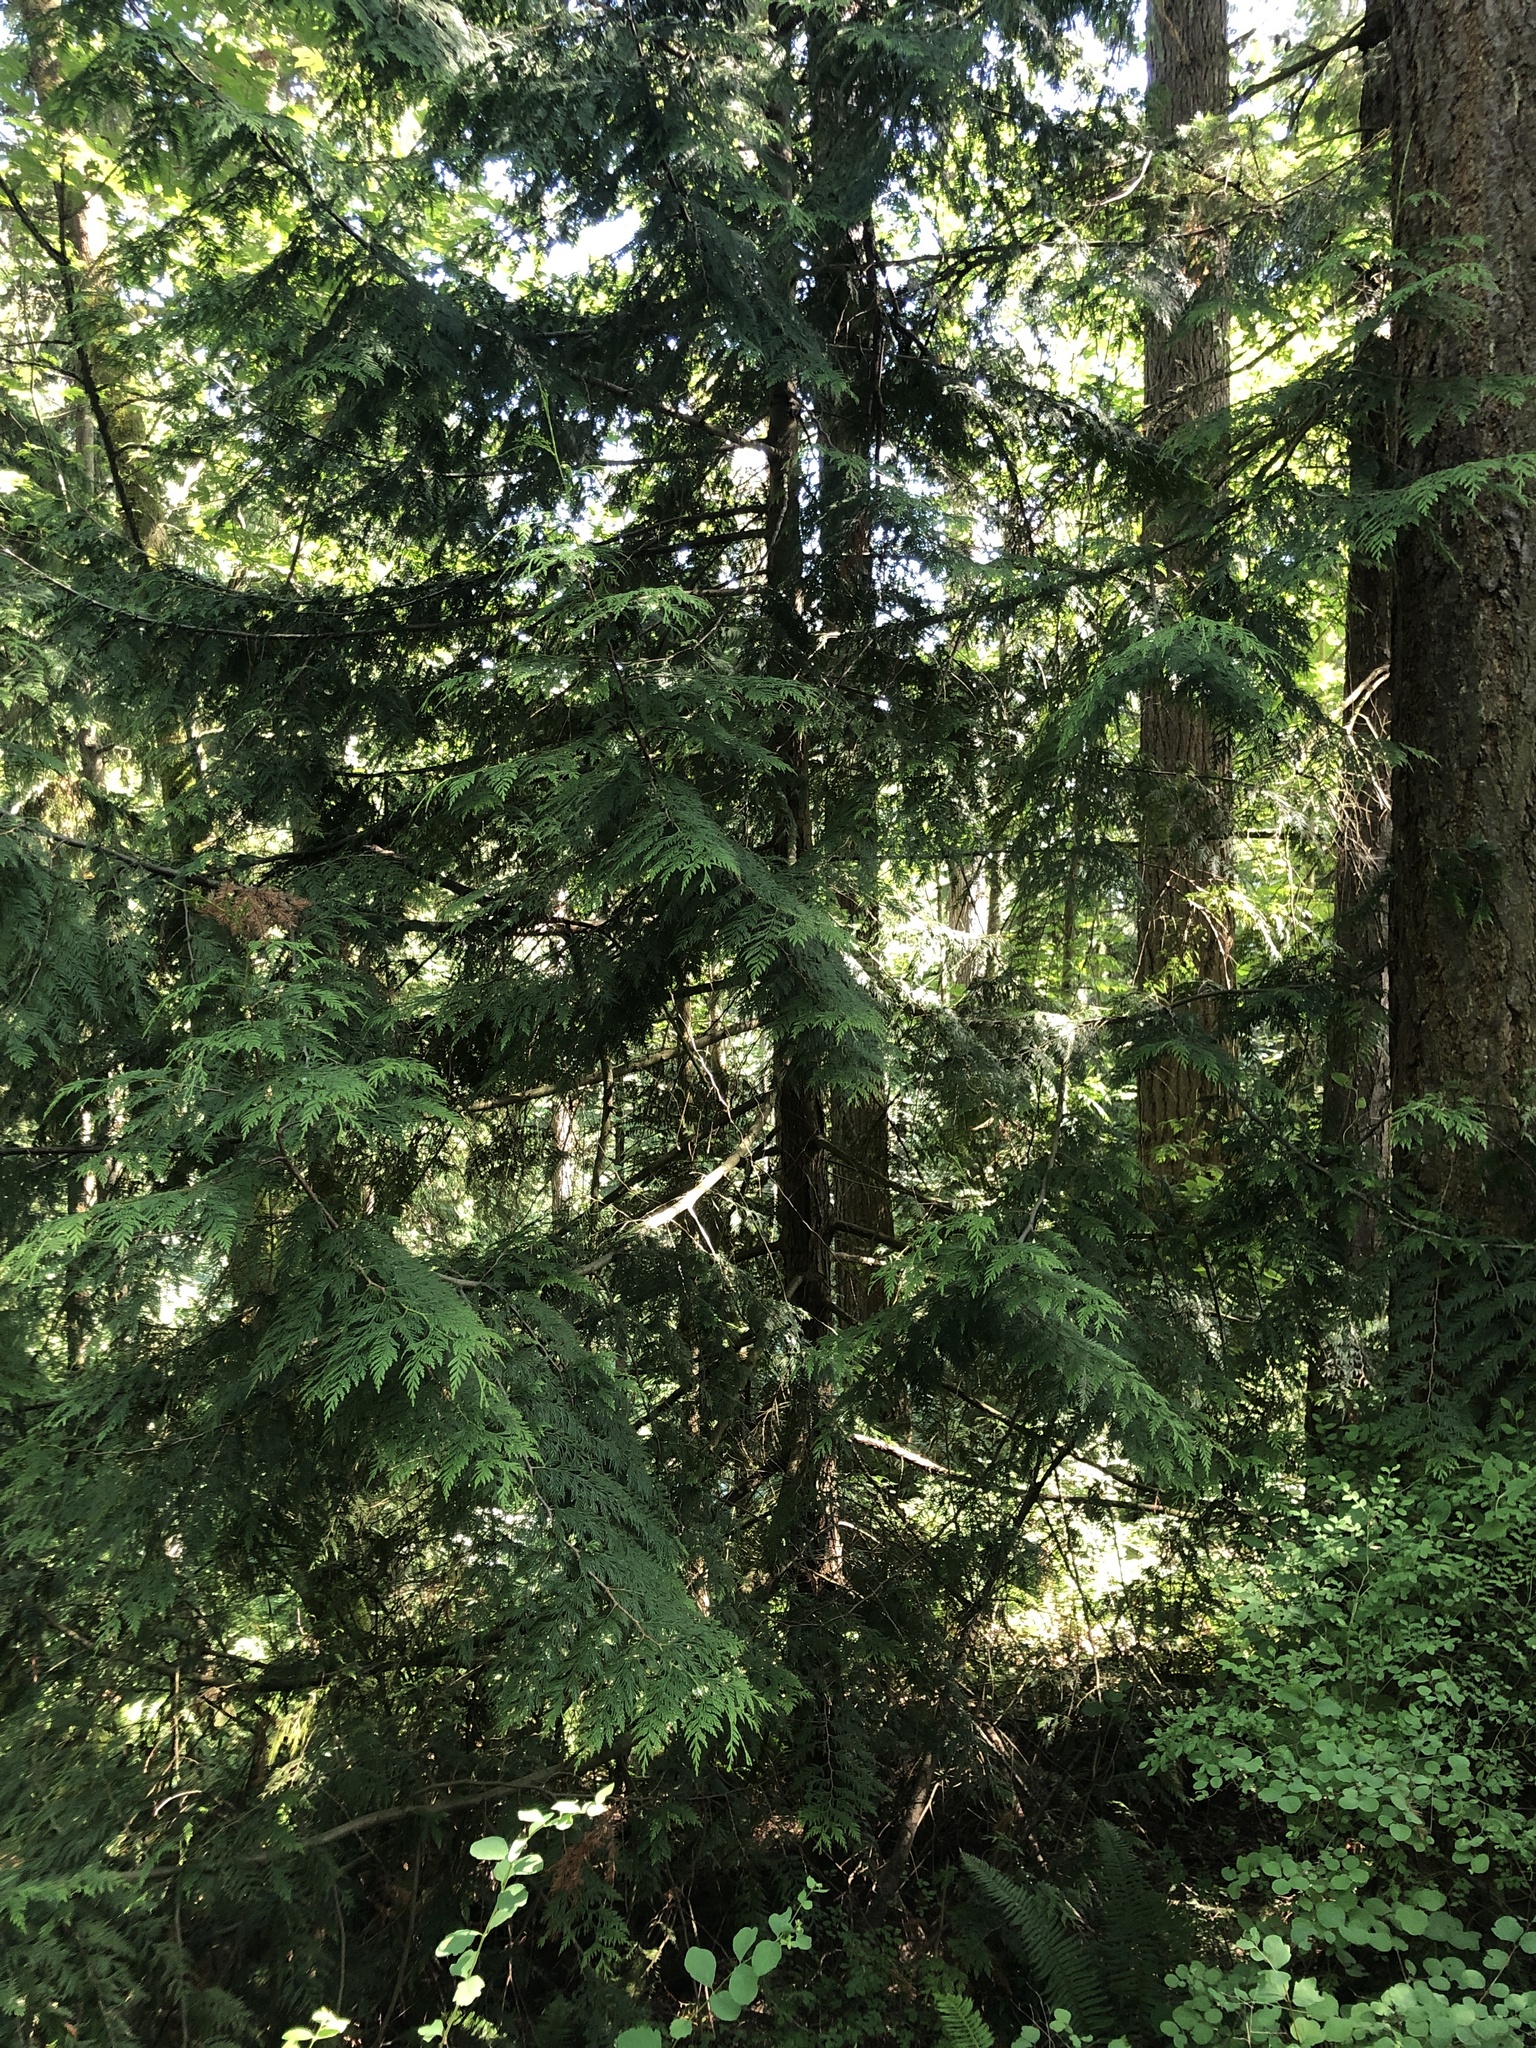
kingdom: Plantae
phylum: Tracheophyta
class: Pinopsida
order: Pinales
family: Cupressaceae
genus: Thuja
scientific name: Thuja plicata
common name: Western red-cedar
